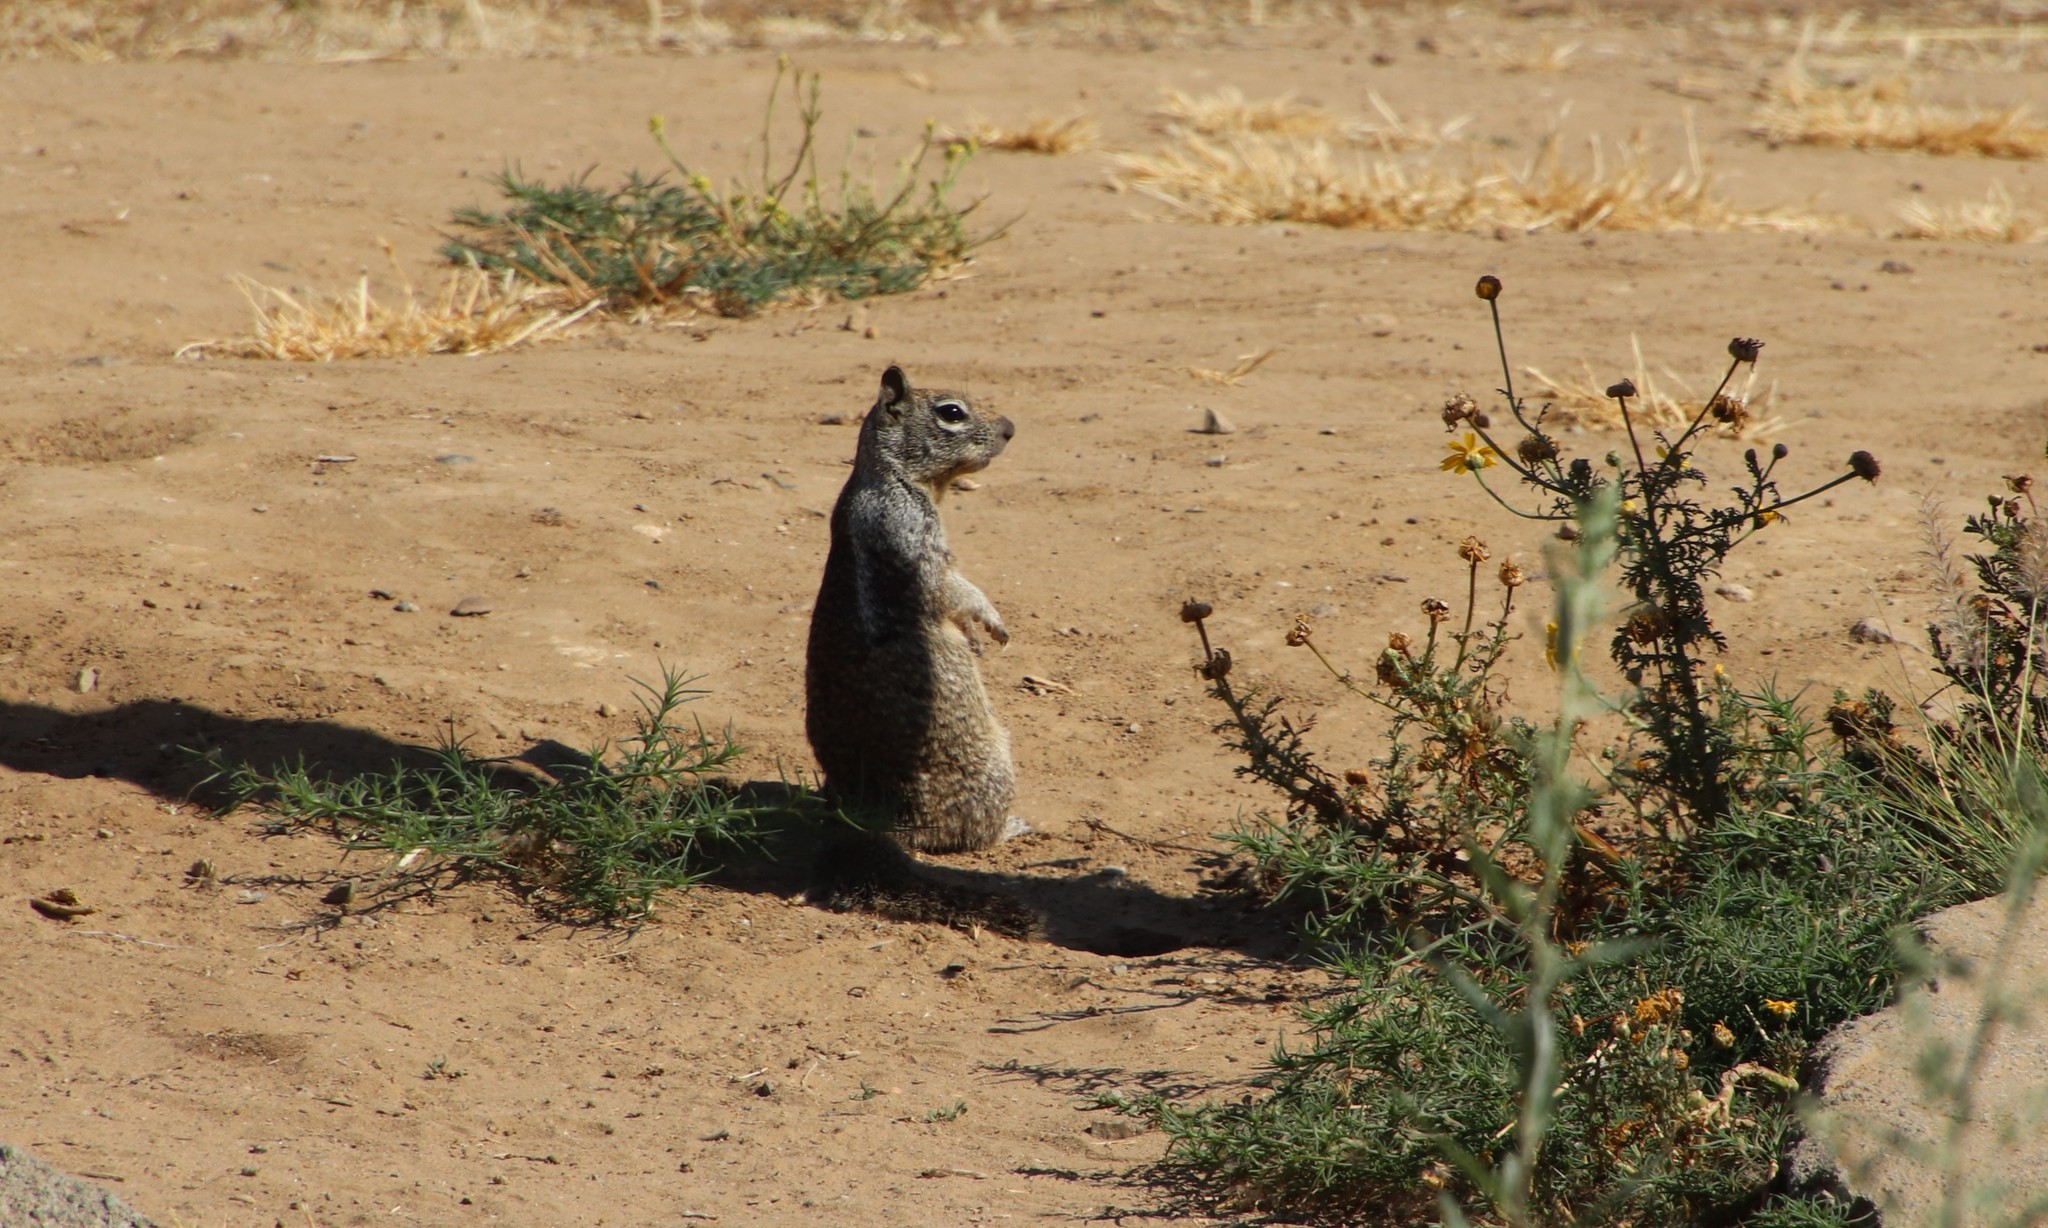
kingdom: Animalia
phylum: Chordata
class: Mammalia
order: Rodentia
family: Sciuridae
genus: Otospermophilus
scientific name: Otospermophilus beecheyi
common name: California ground squirrel
